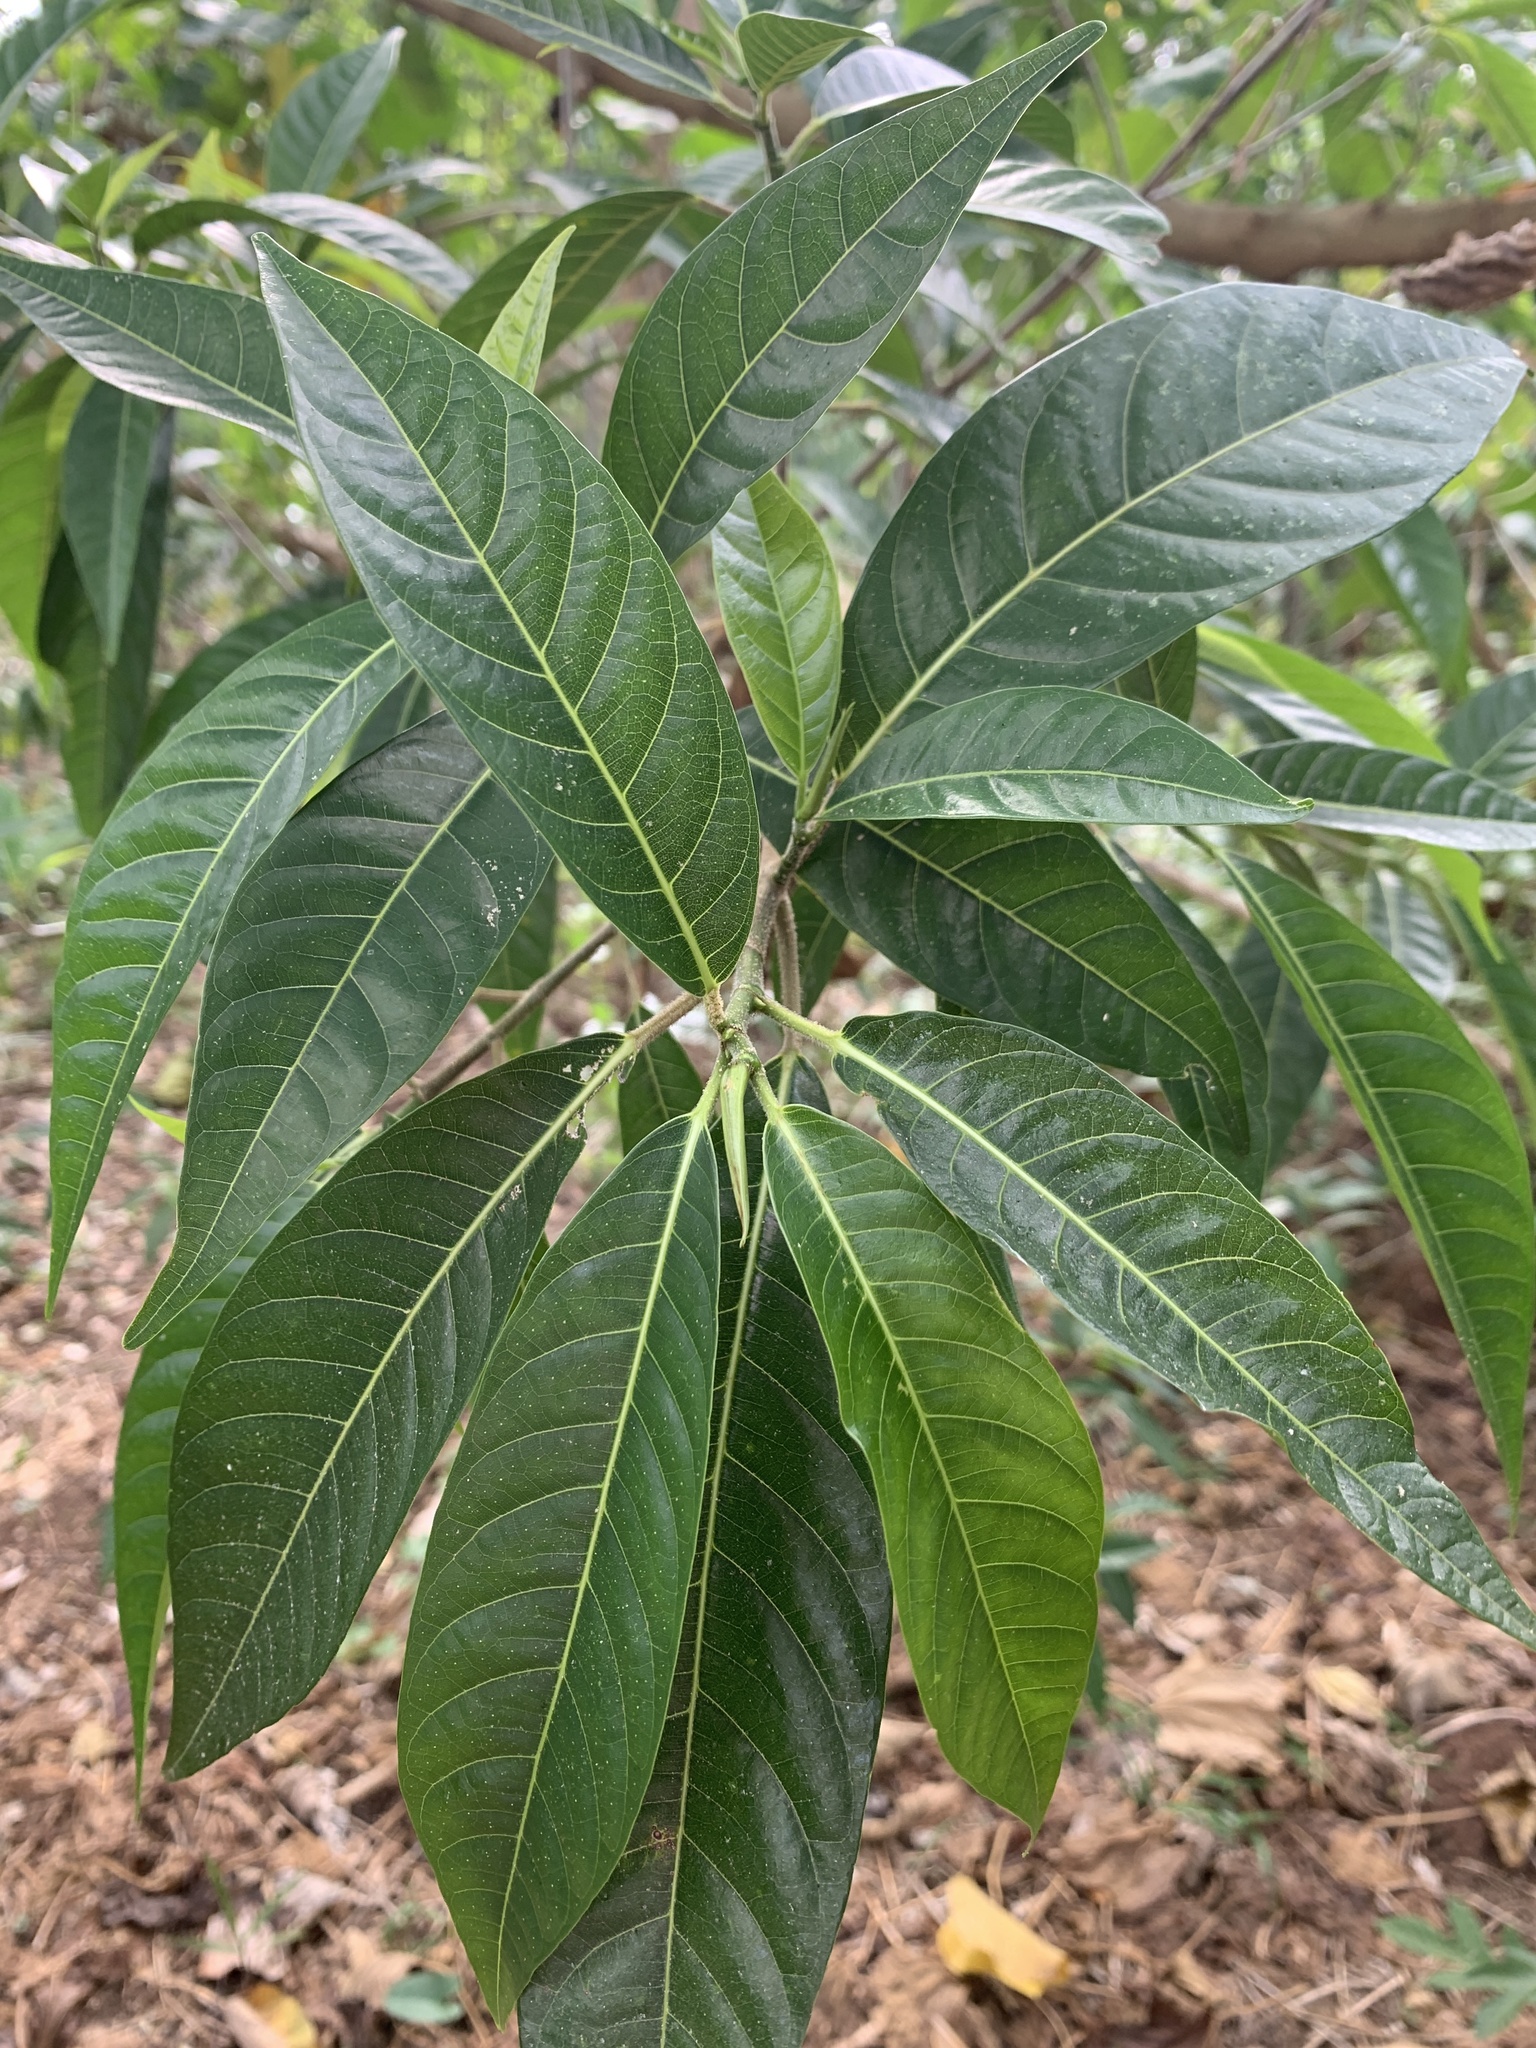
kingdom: Plantae
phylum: Tracheophyta
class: Magnoliopsida
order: Rosales
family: Moraceae
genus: Ficus
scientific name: Ficus septica
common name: Septic fig
